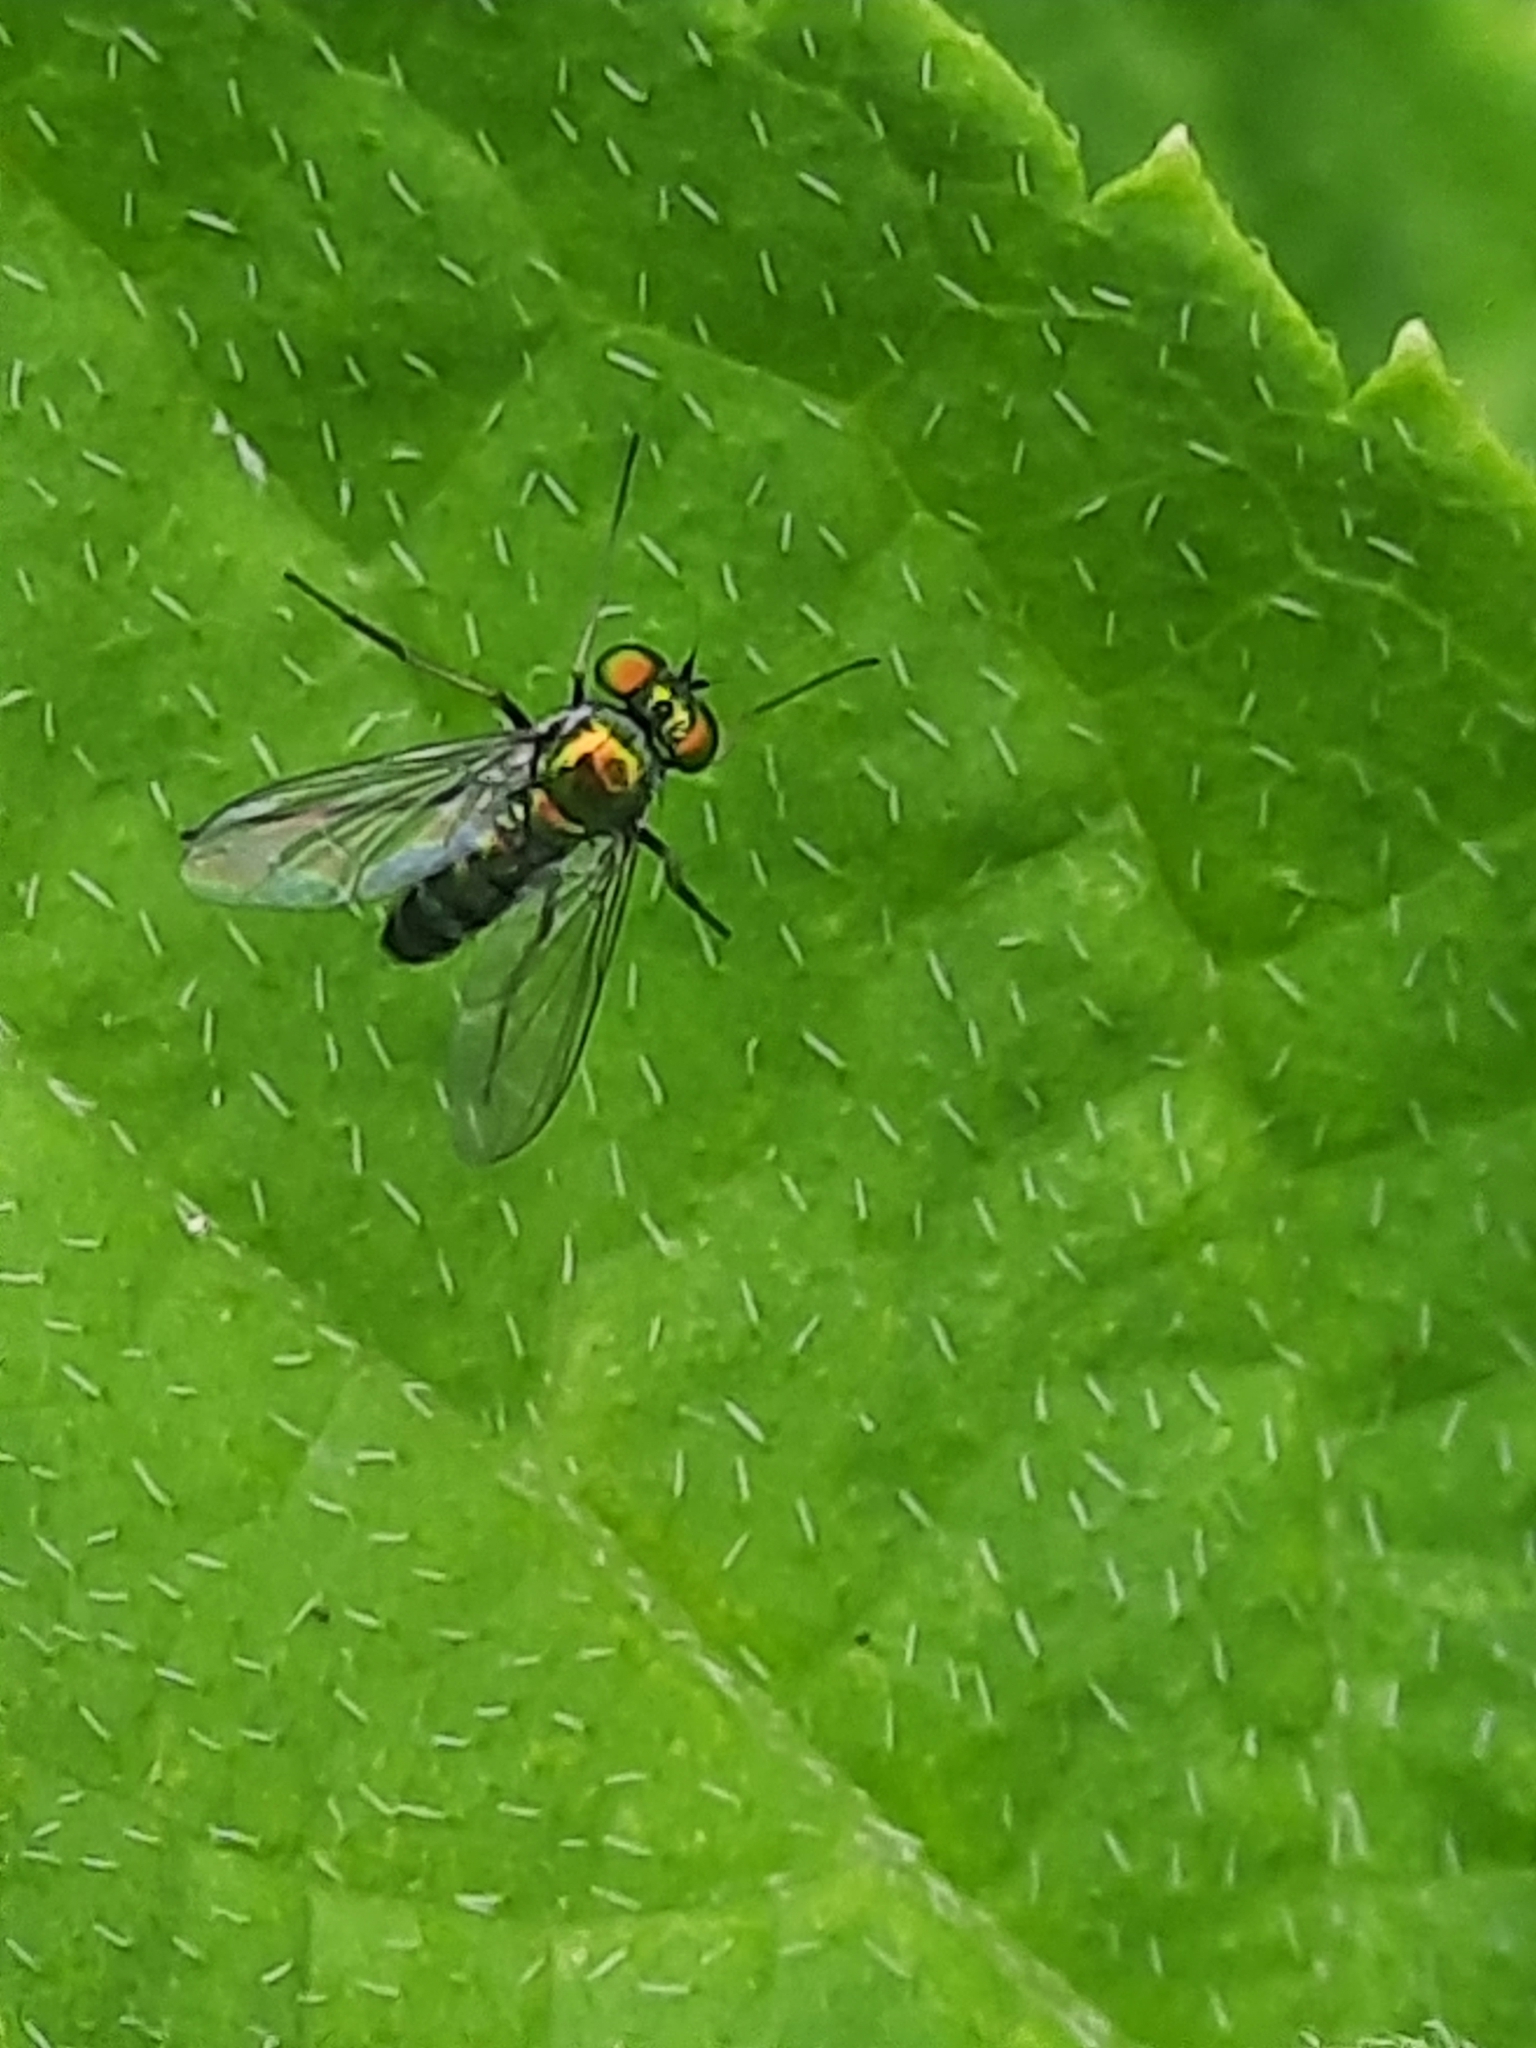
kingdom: Animalia
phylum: Arthropoda
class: Insecta
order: Diptera
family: Dolichopodidae
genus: Condylostylus
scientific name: Condylostylus
